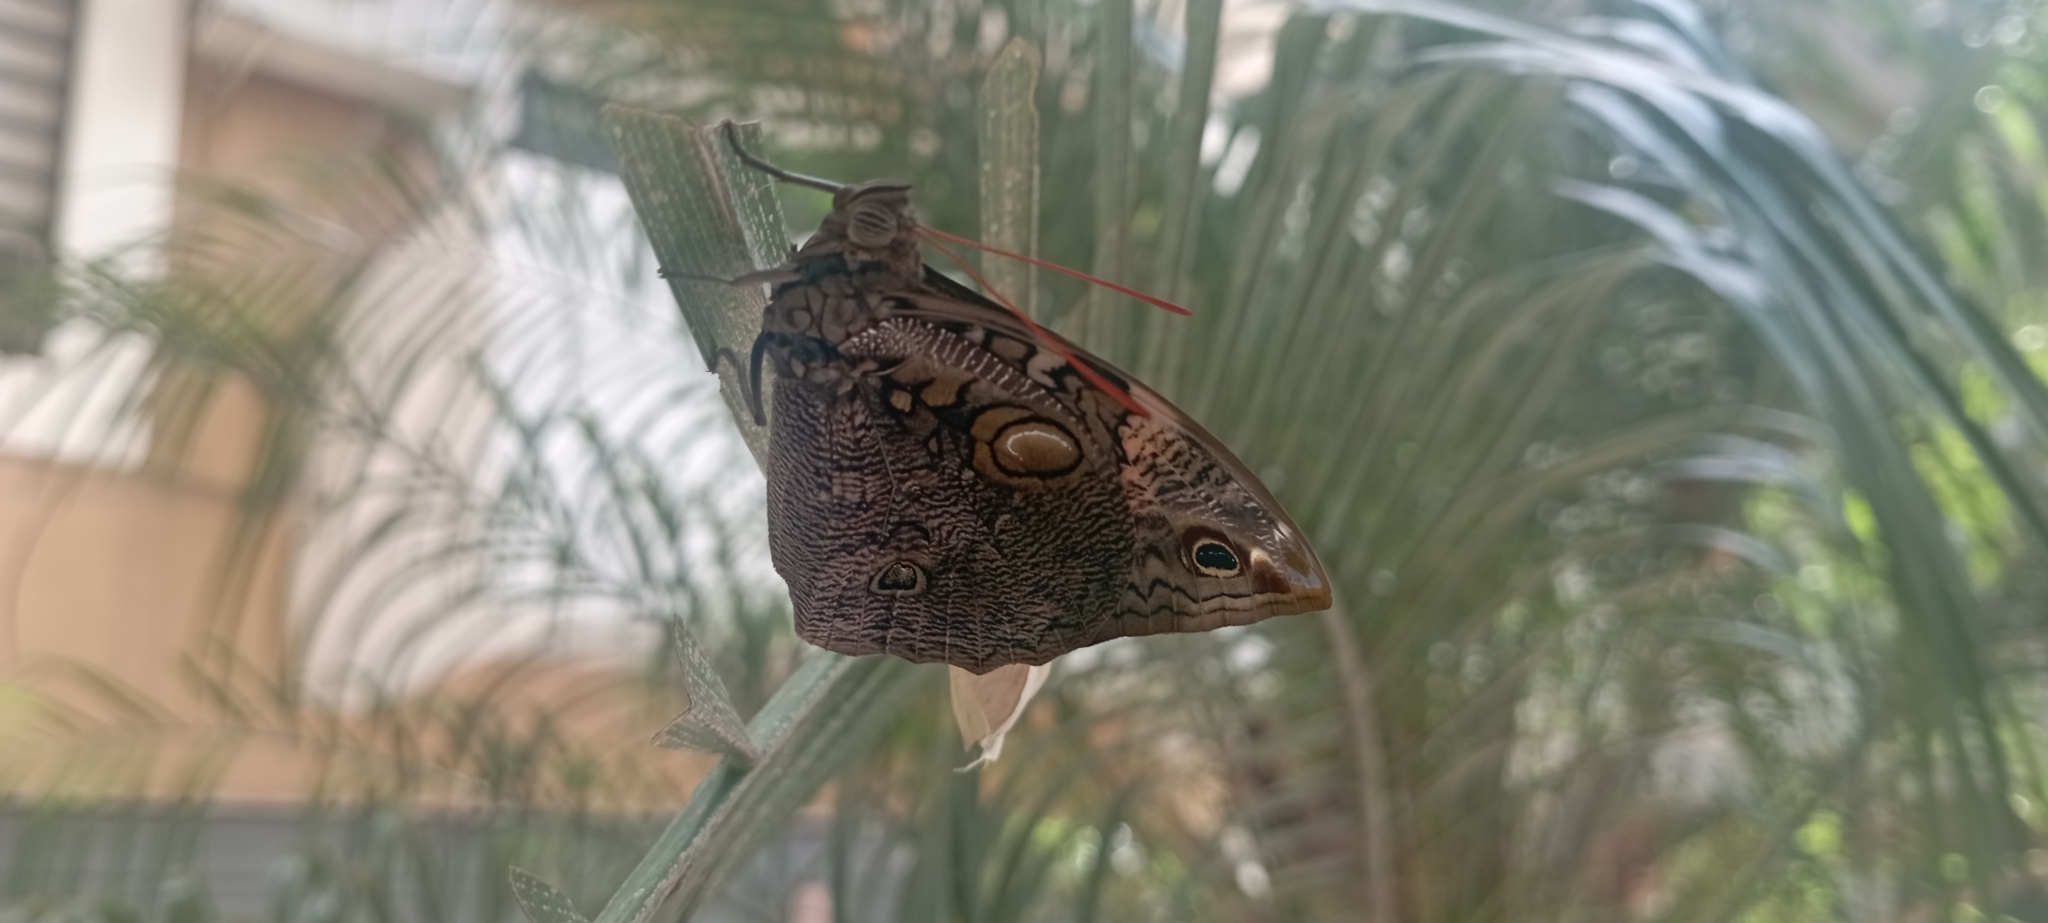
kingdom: Animalia
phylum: Arthropoda
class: Insecta
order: Lepidoptera
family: Nymphalidae
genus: Opsiphanes
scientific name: Opsiphanes invirae
